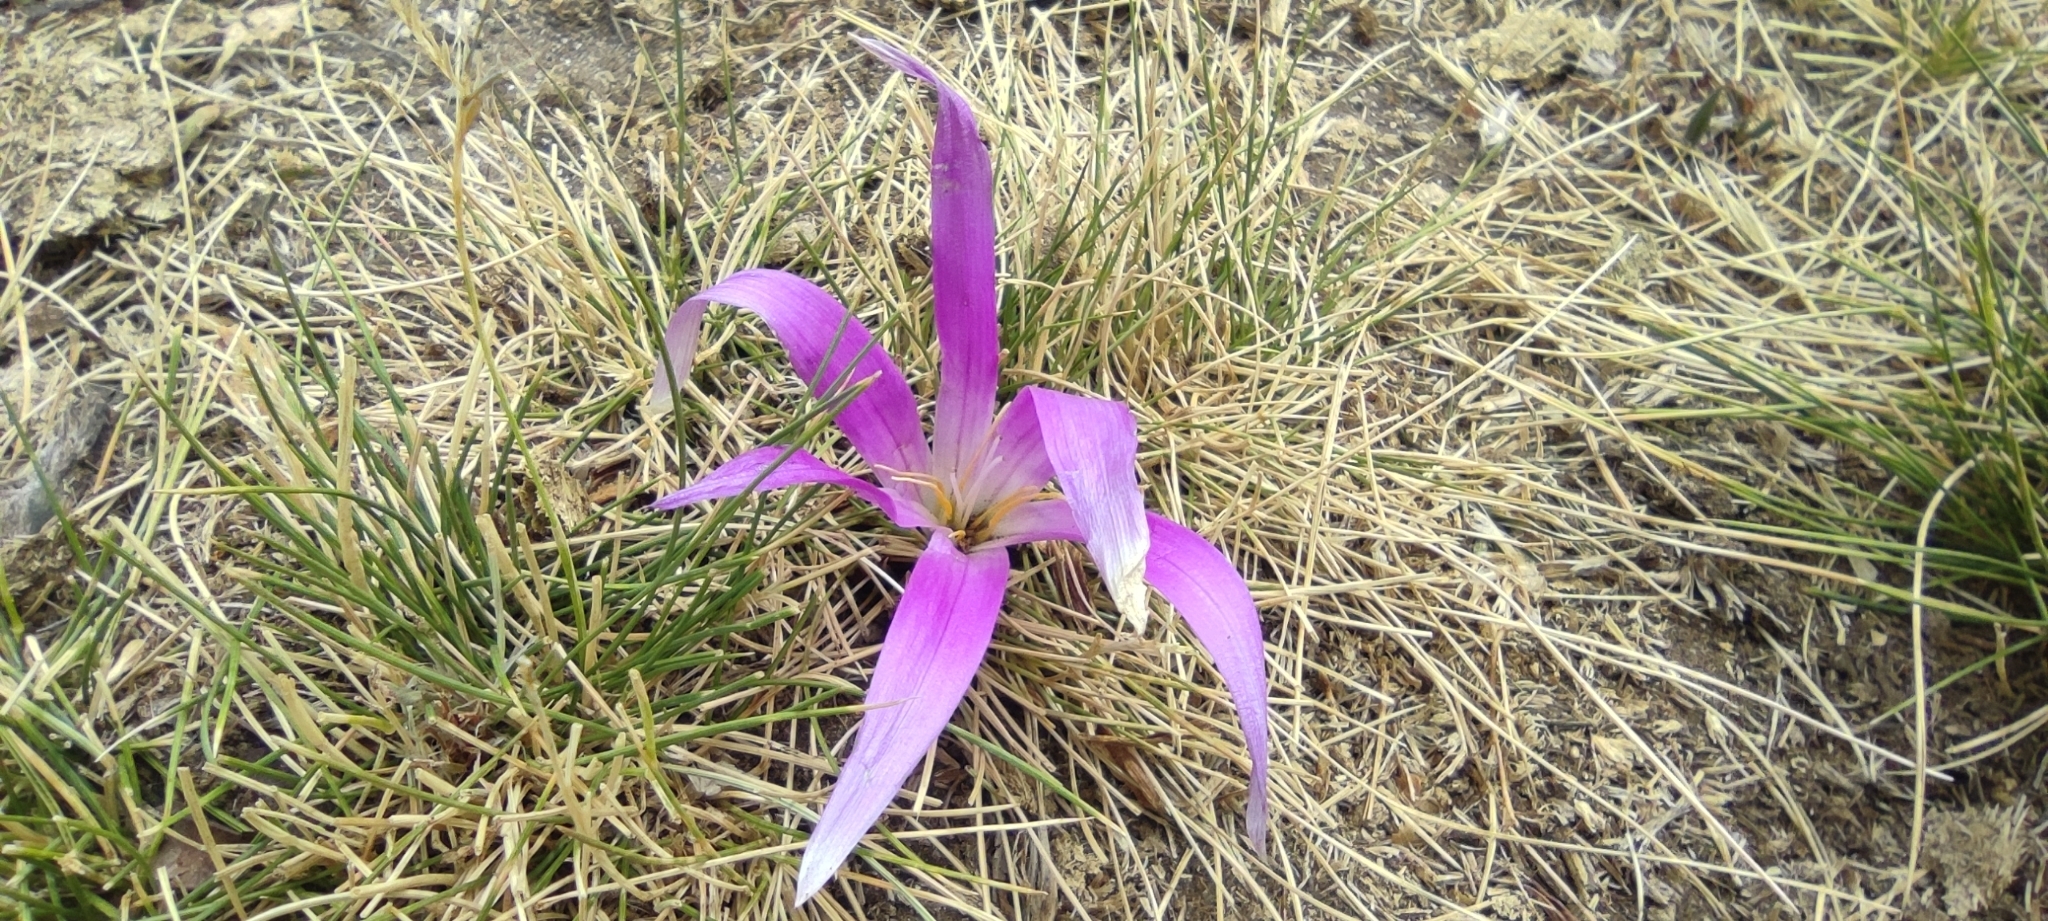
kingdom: Plantae
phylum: Tracheophyta
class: Liliopsida
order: Liliales
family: Colchicaceae
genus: Colchicum
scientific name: Colchicum montanum
